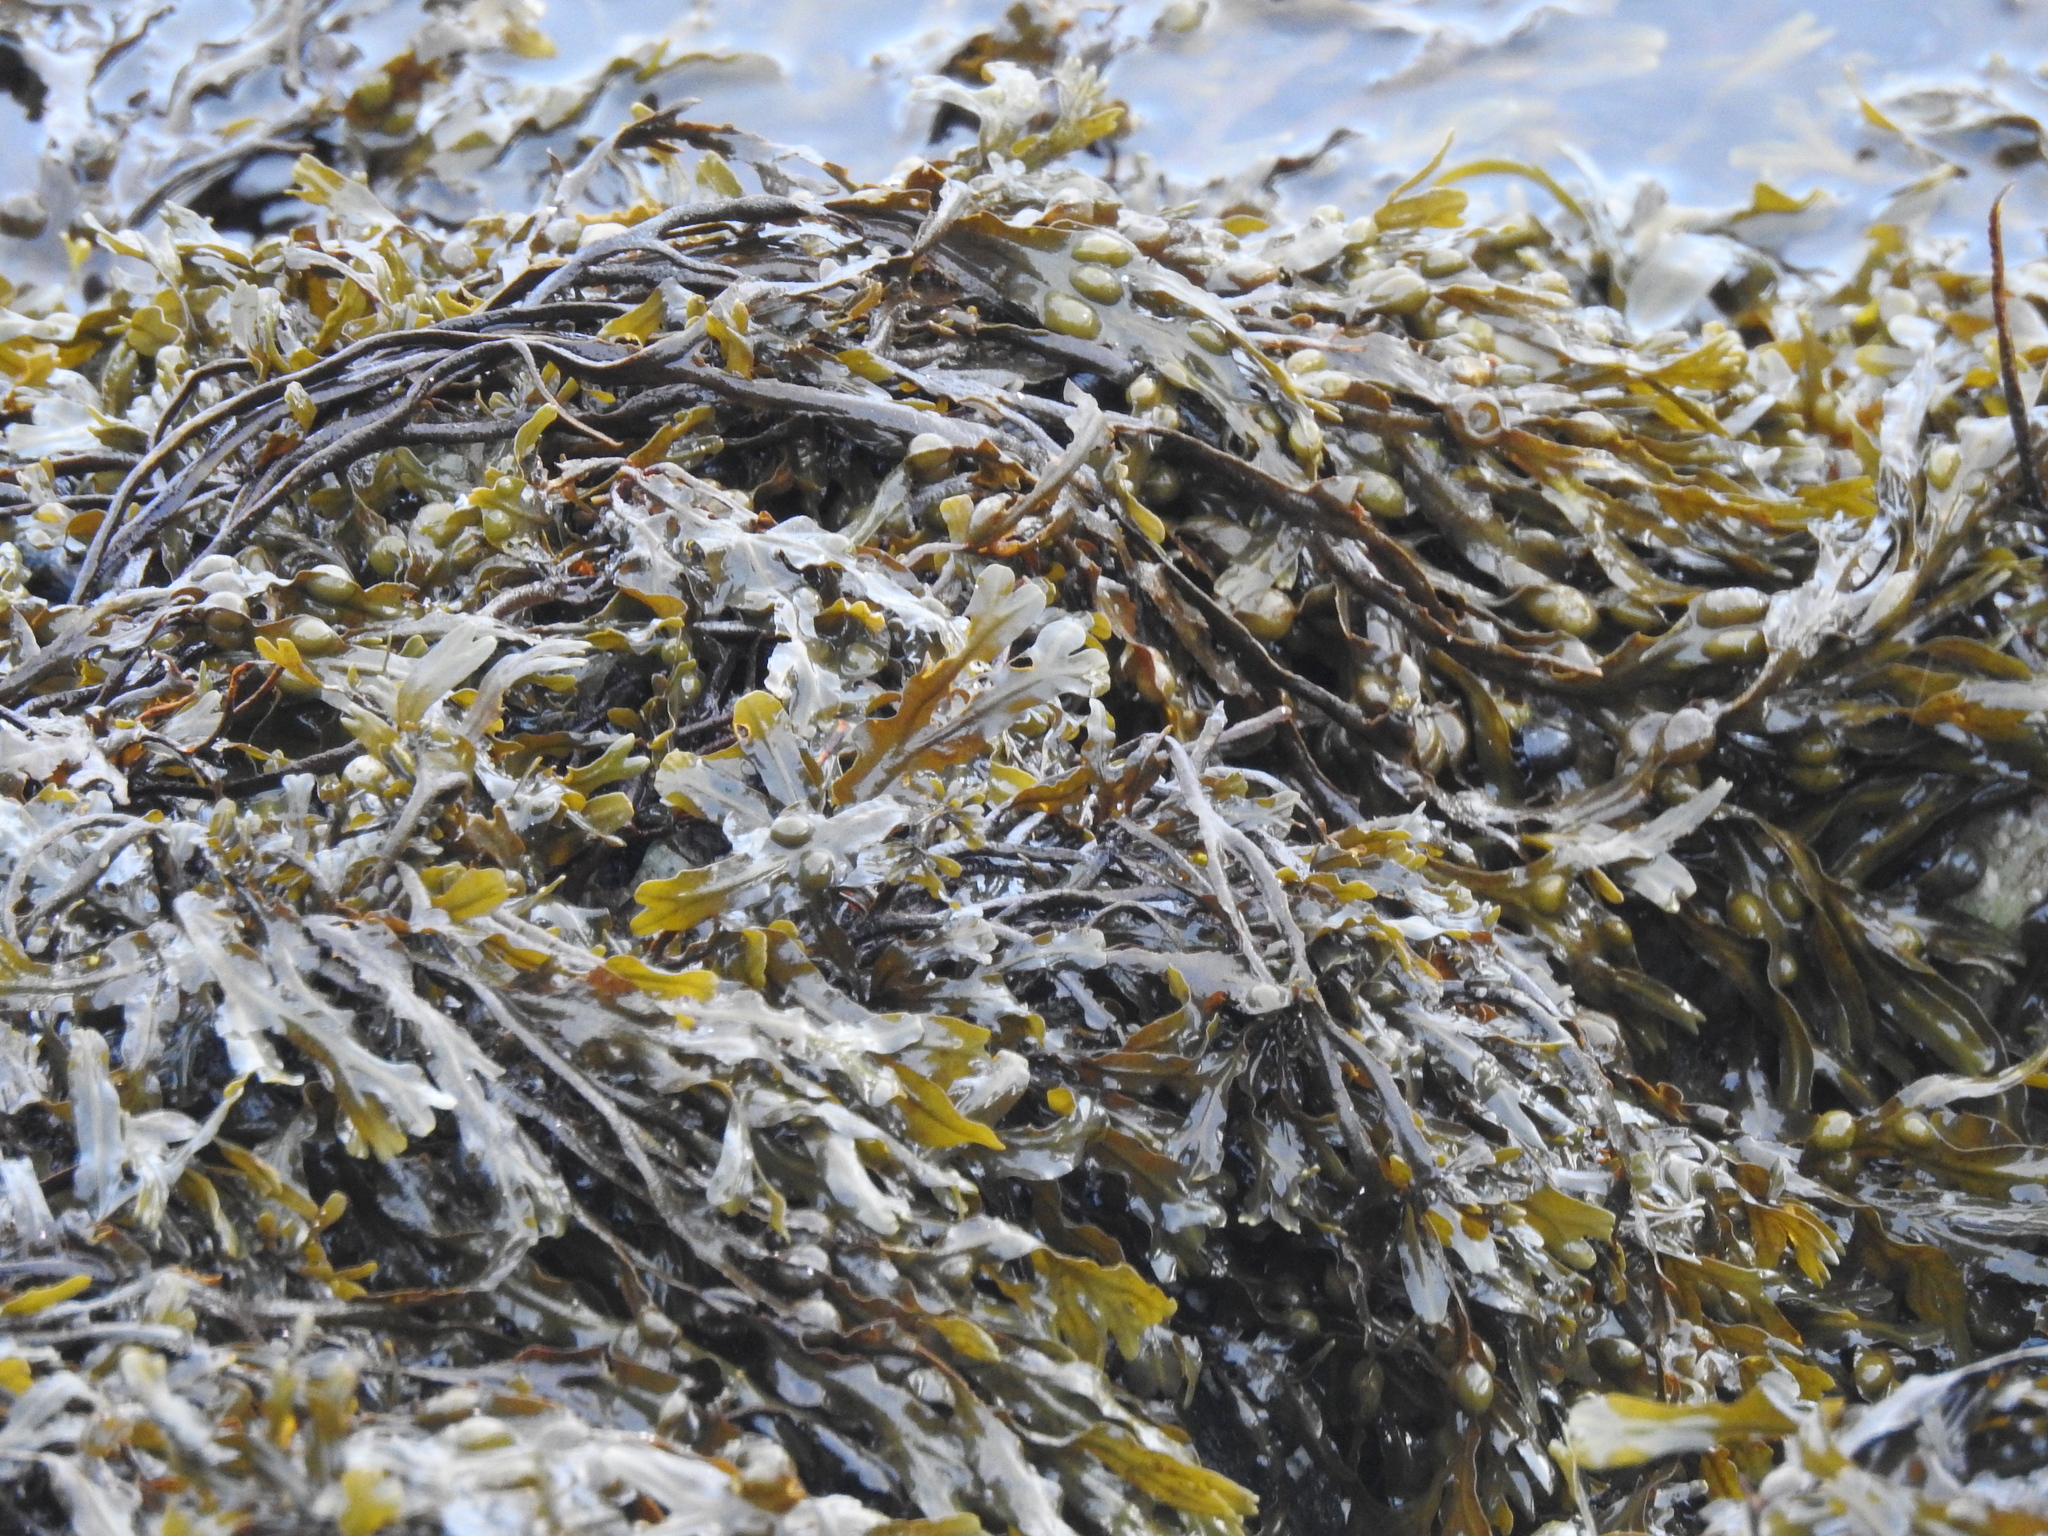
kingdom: Chromista
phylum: Ochrophyta
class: Phaeophyceae
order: Fucales
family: Fucaceae
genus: Fucus
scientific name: Fucus vesiculosus
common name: Bladder wrack
